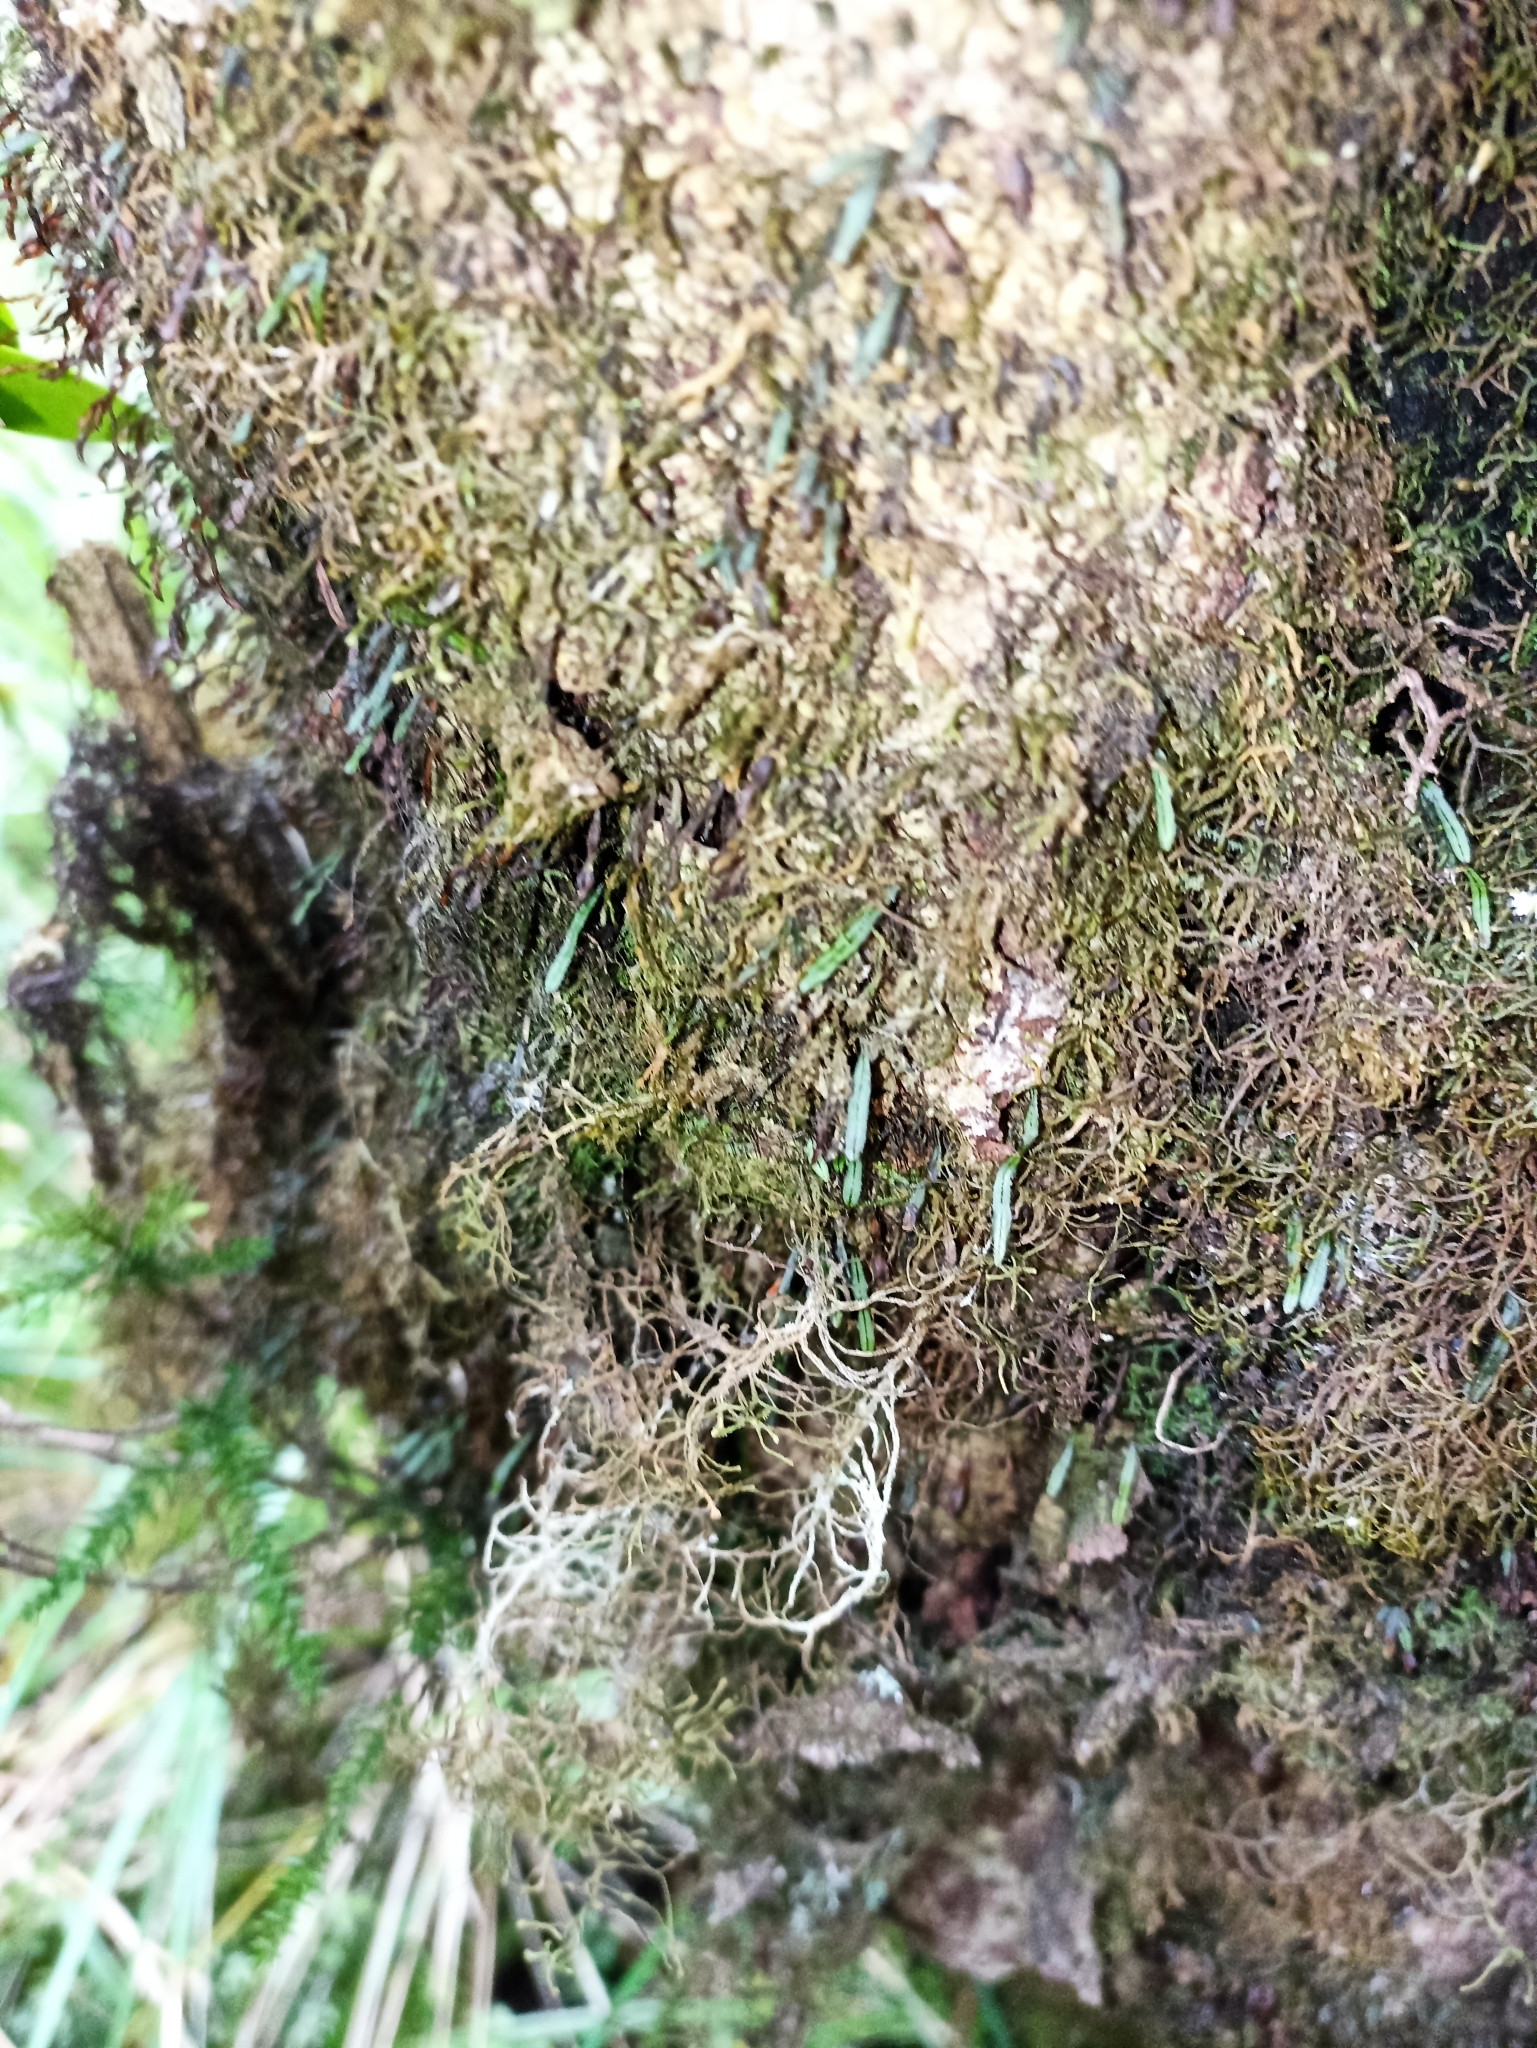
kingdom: Plantae
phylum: Tracheophyta
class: Polypodiopsida
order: Hymenophyllales
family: Hymenophyllaceae
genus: Hymenophyllum
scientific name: Hymenophyllum armstrongii
